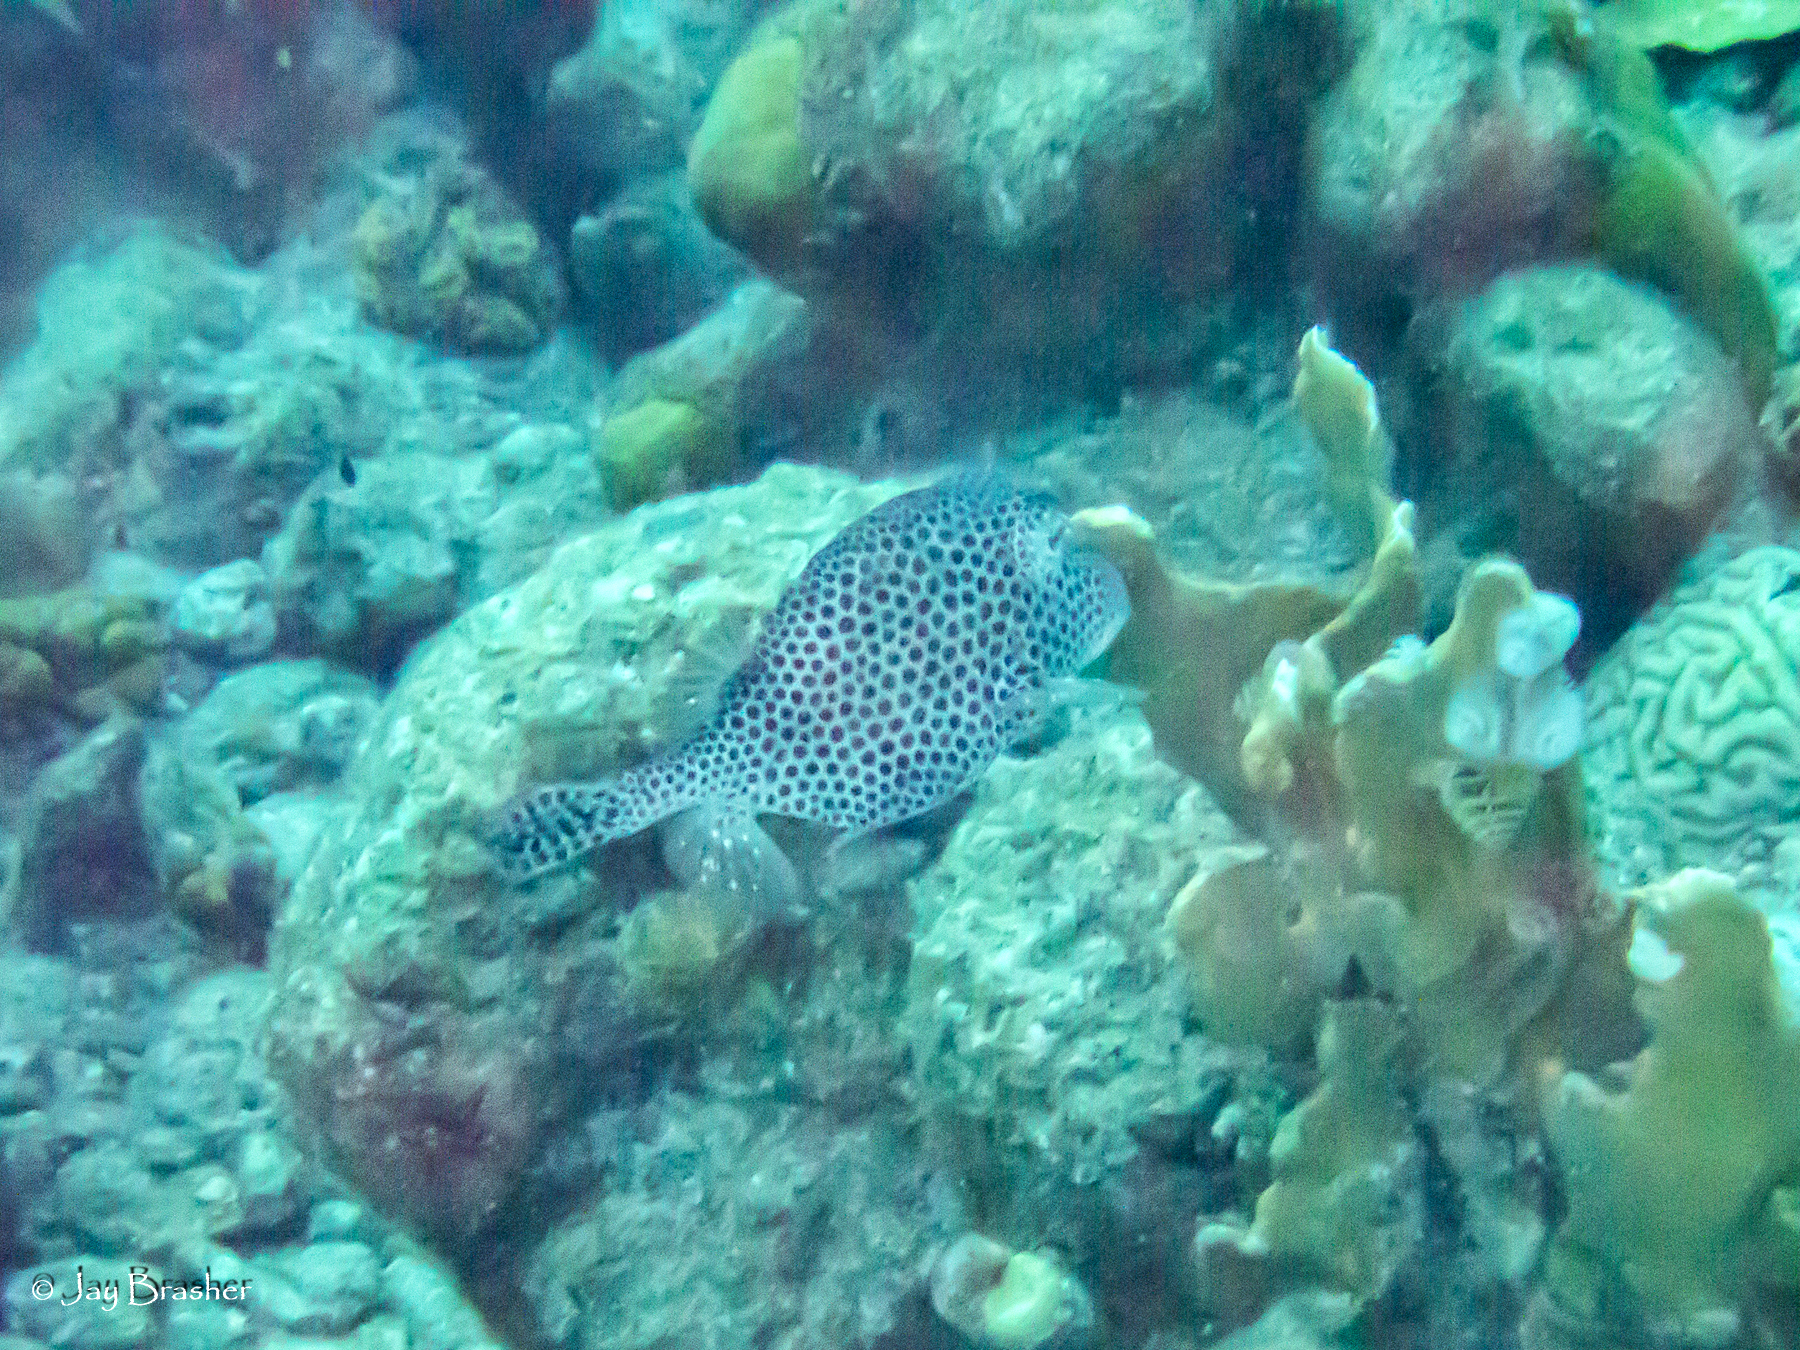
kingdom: Animalia
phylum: Chordata
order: Tetraodontiformes
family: Ostraciidae
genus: Lactophrys
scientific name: Lactophrys bicaudalis
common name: Spotted trunkfish
